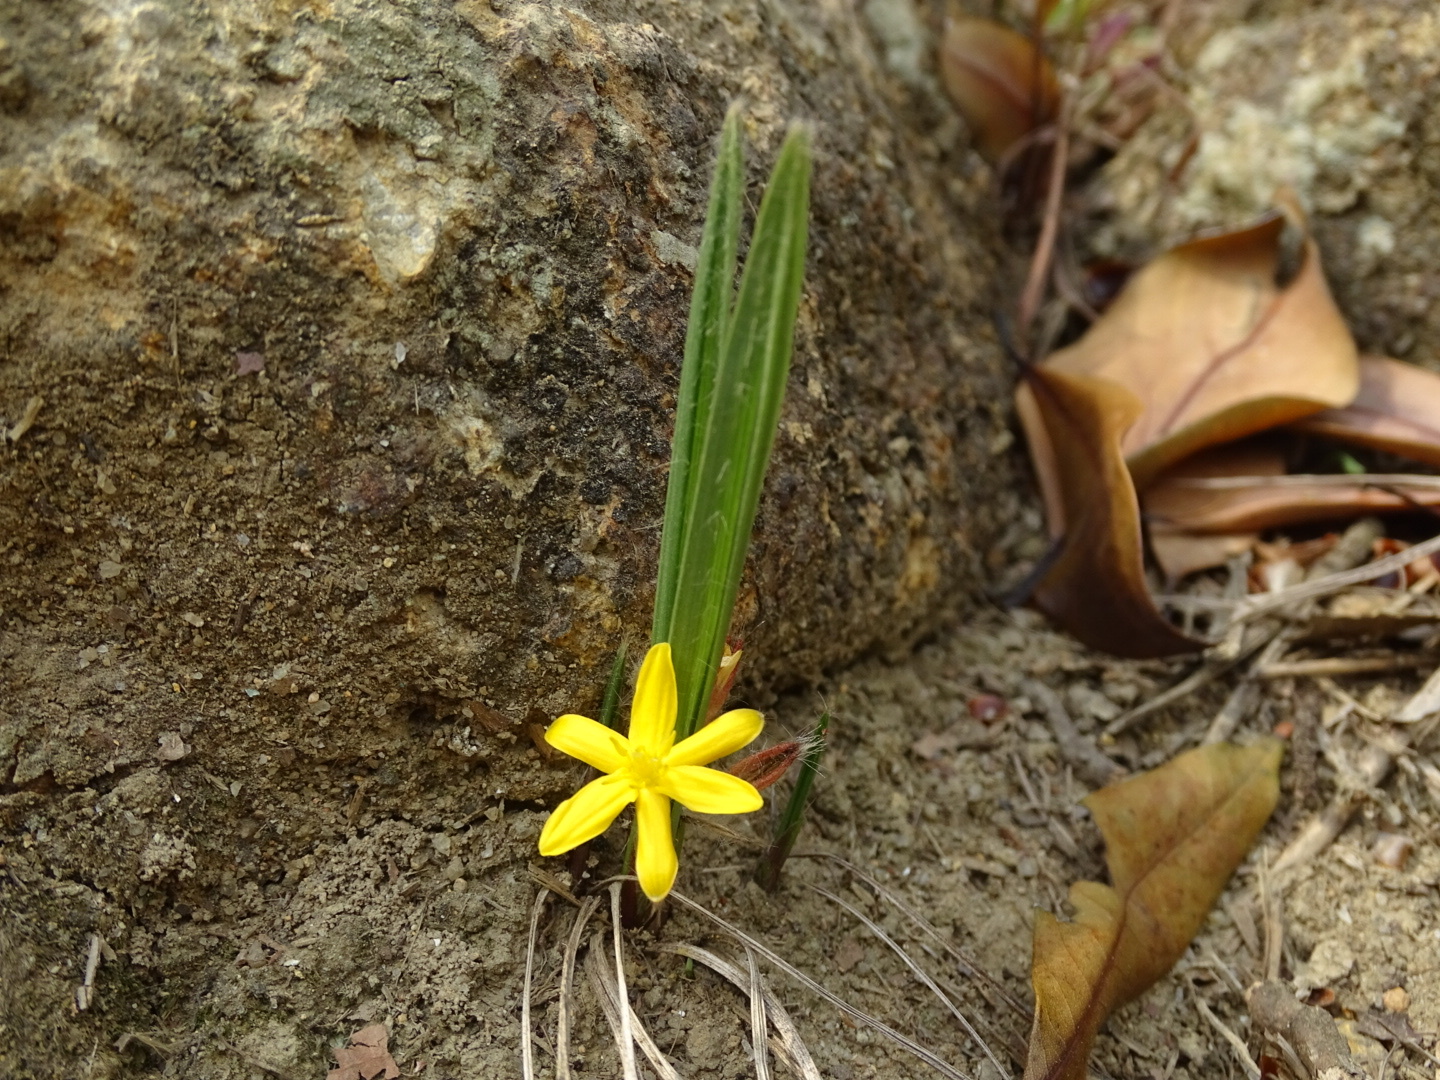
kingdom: Plantae
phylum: Tracheophyta
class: Liliopsida
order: Asparagales
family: Hypoxidaceae
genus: Curculigo
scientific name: Curculigo orchioides
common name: Golden eye-grass
